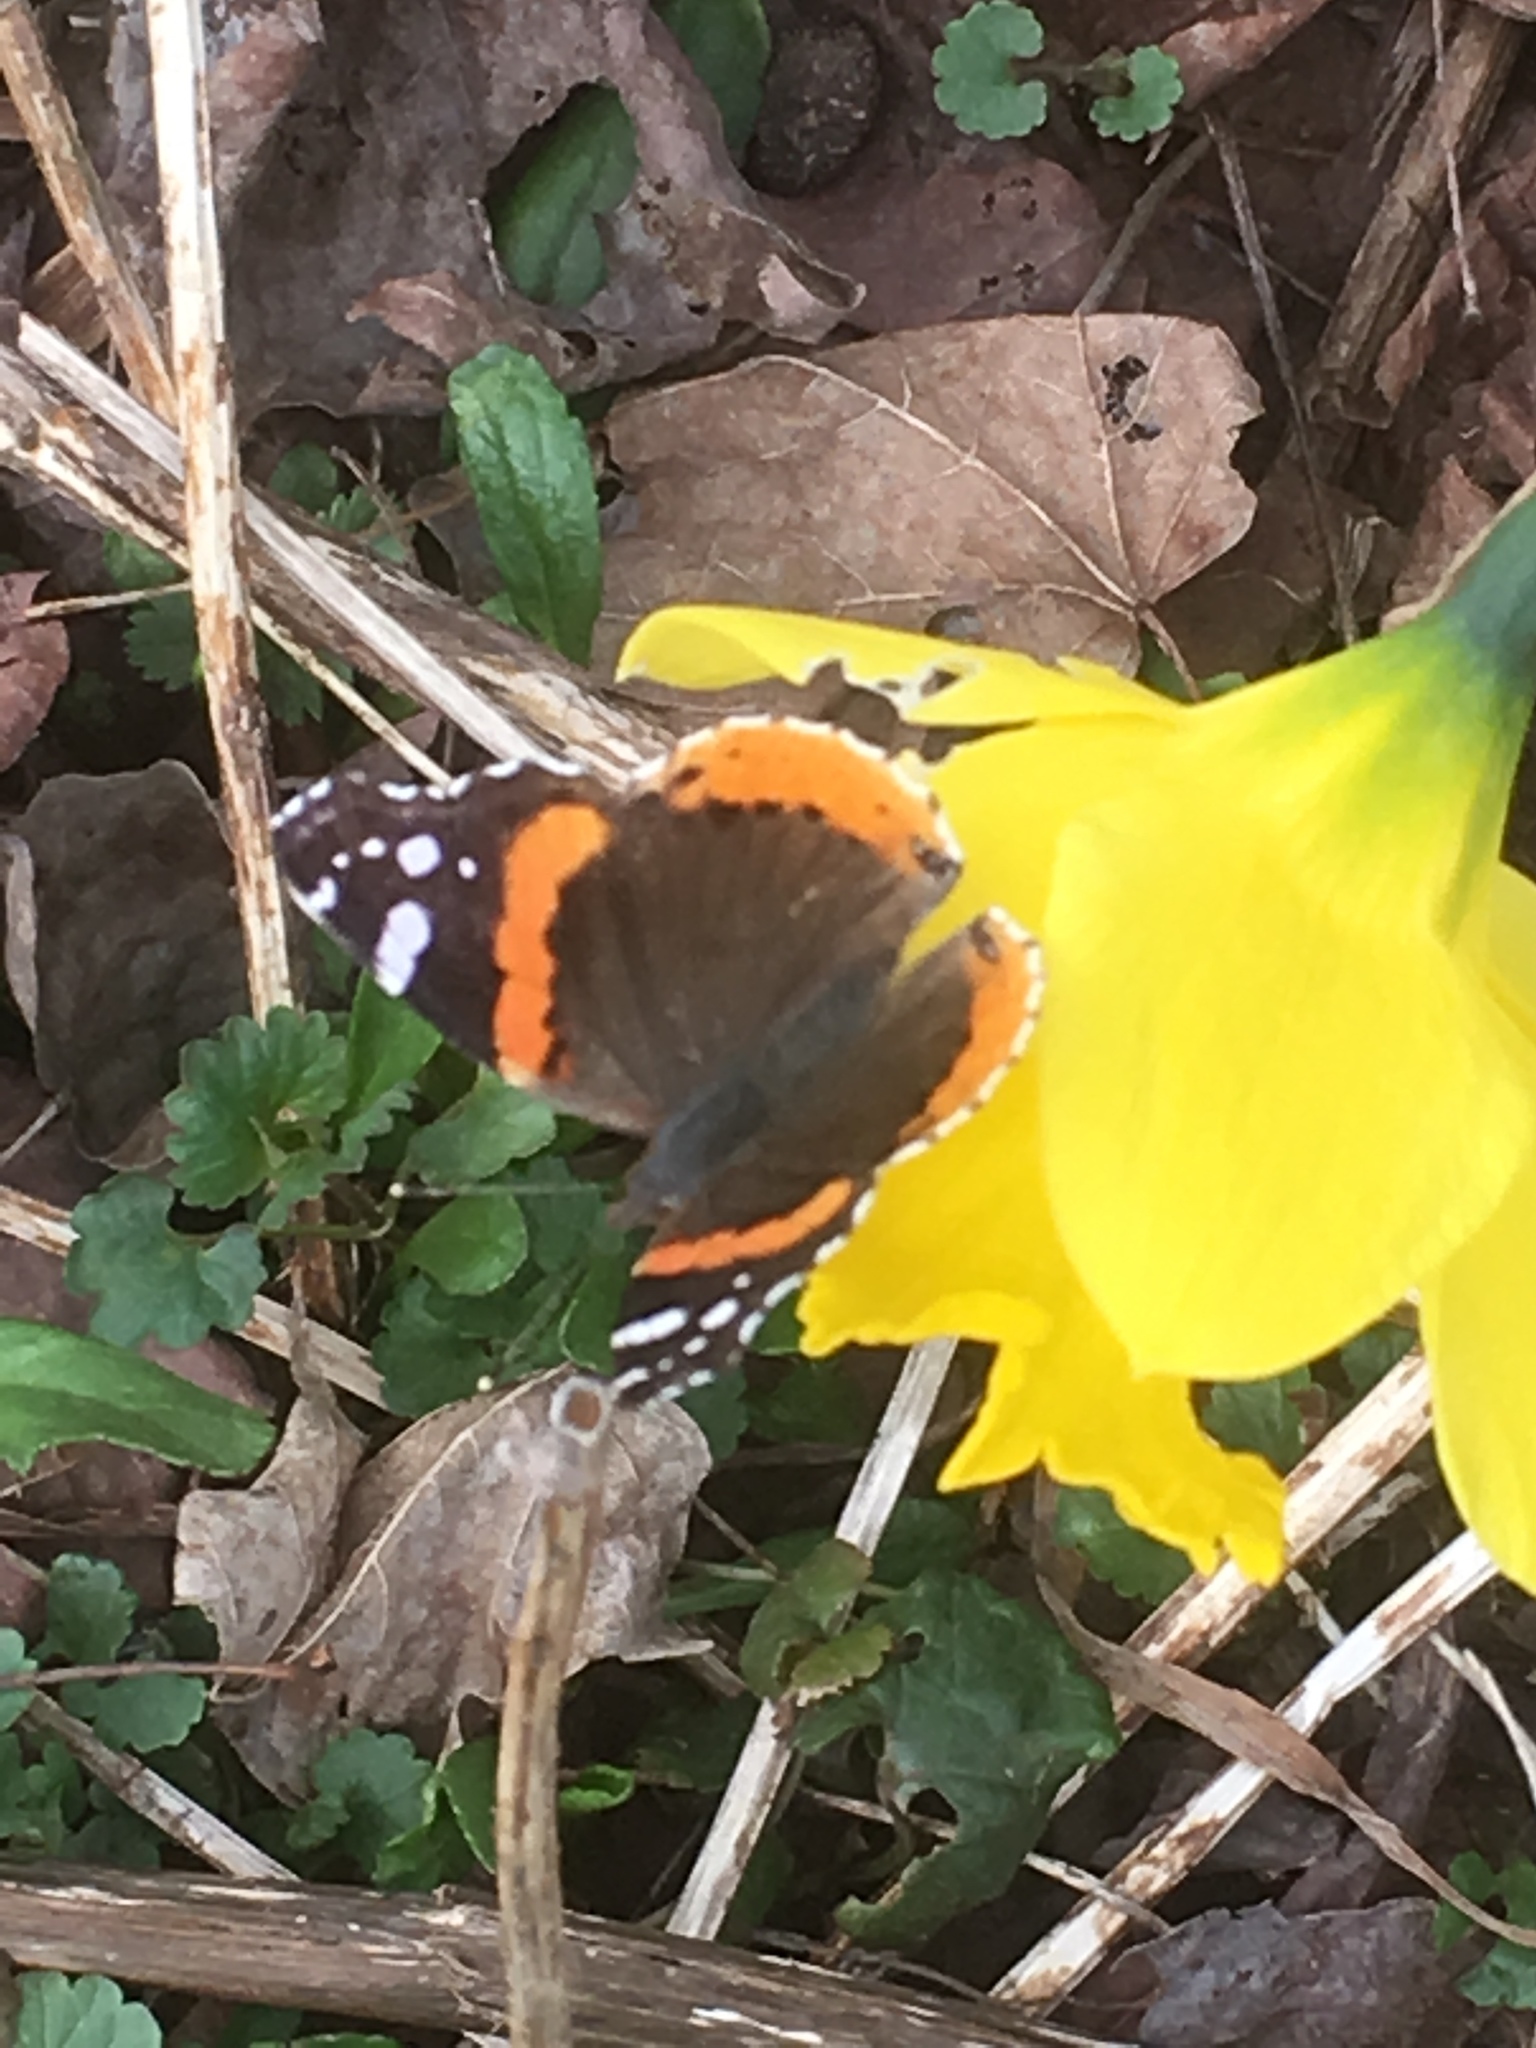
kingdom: Animalia
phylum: Arthropoda
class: Insecta
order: Lepidoptera
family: Nymphalidae
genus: Vanessa
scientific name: Vanessa atalanta
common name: Red admiral
